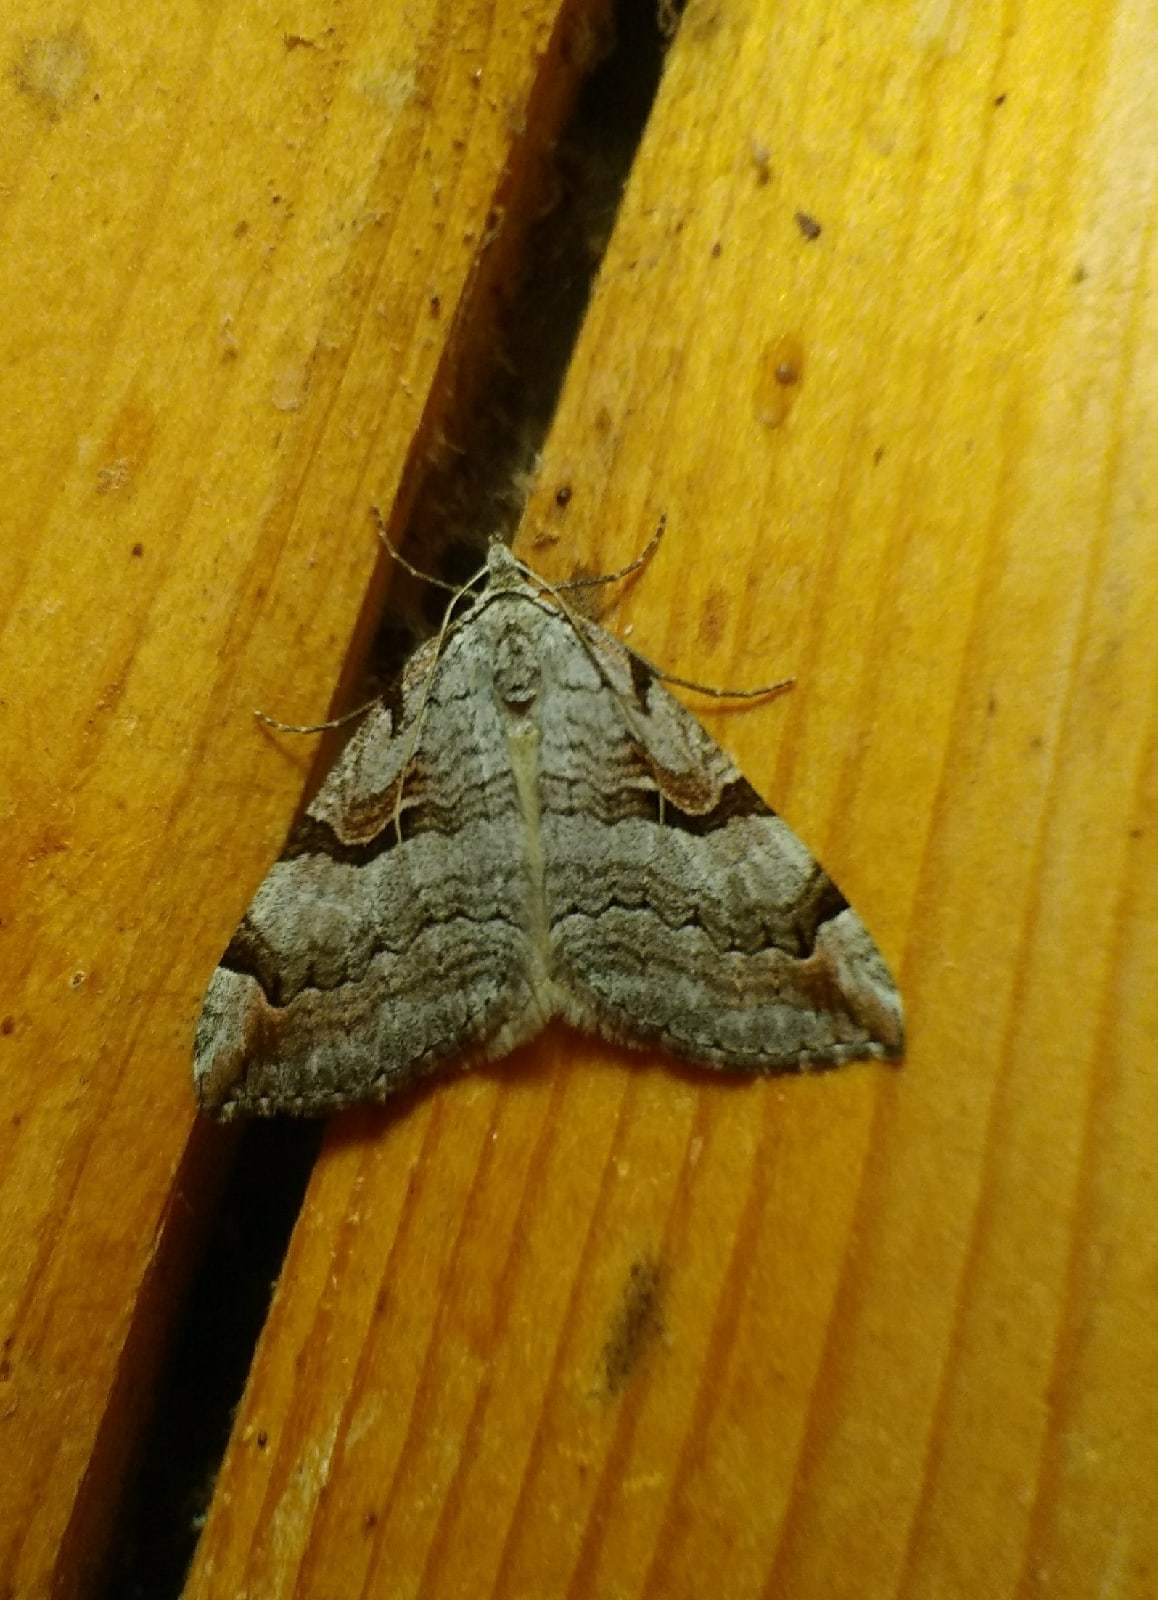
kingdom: Animalia
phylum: Arthropoda
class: Insecta
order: Lepidoptera
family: Geometridae
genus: Aplocera
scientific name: Aplocera praeformata
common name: Purple treble-bar
